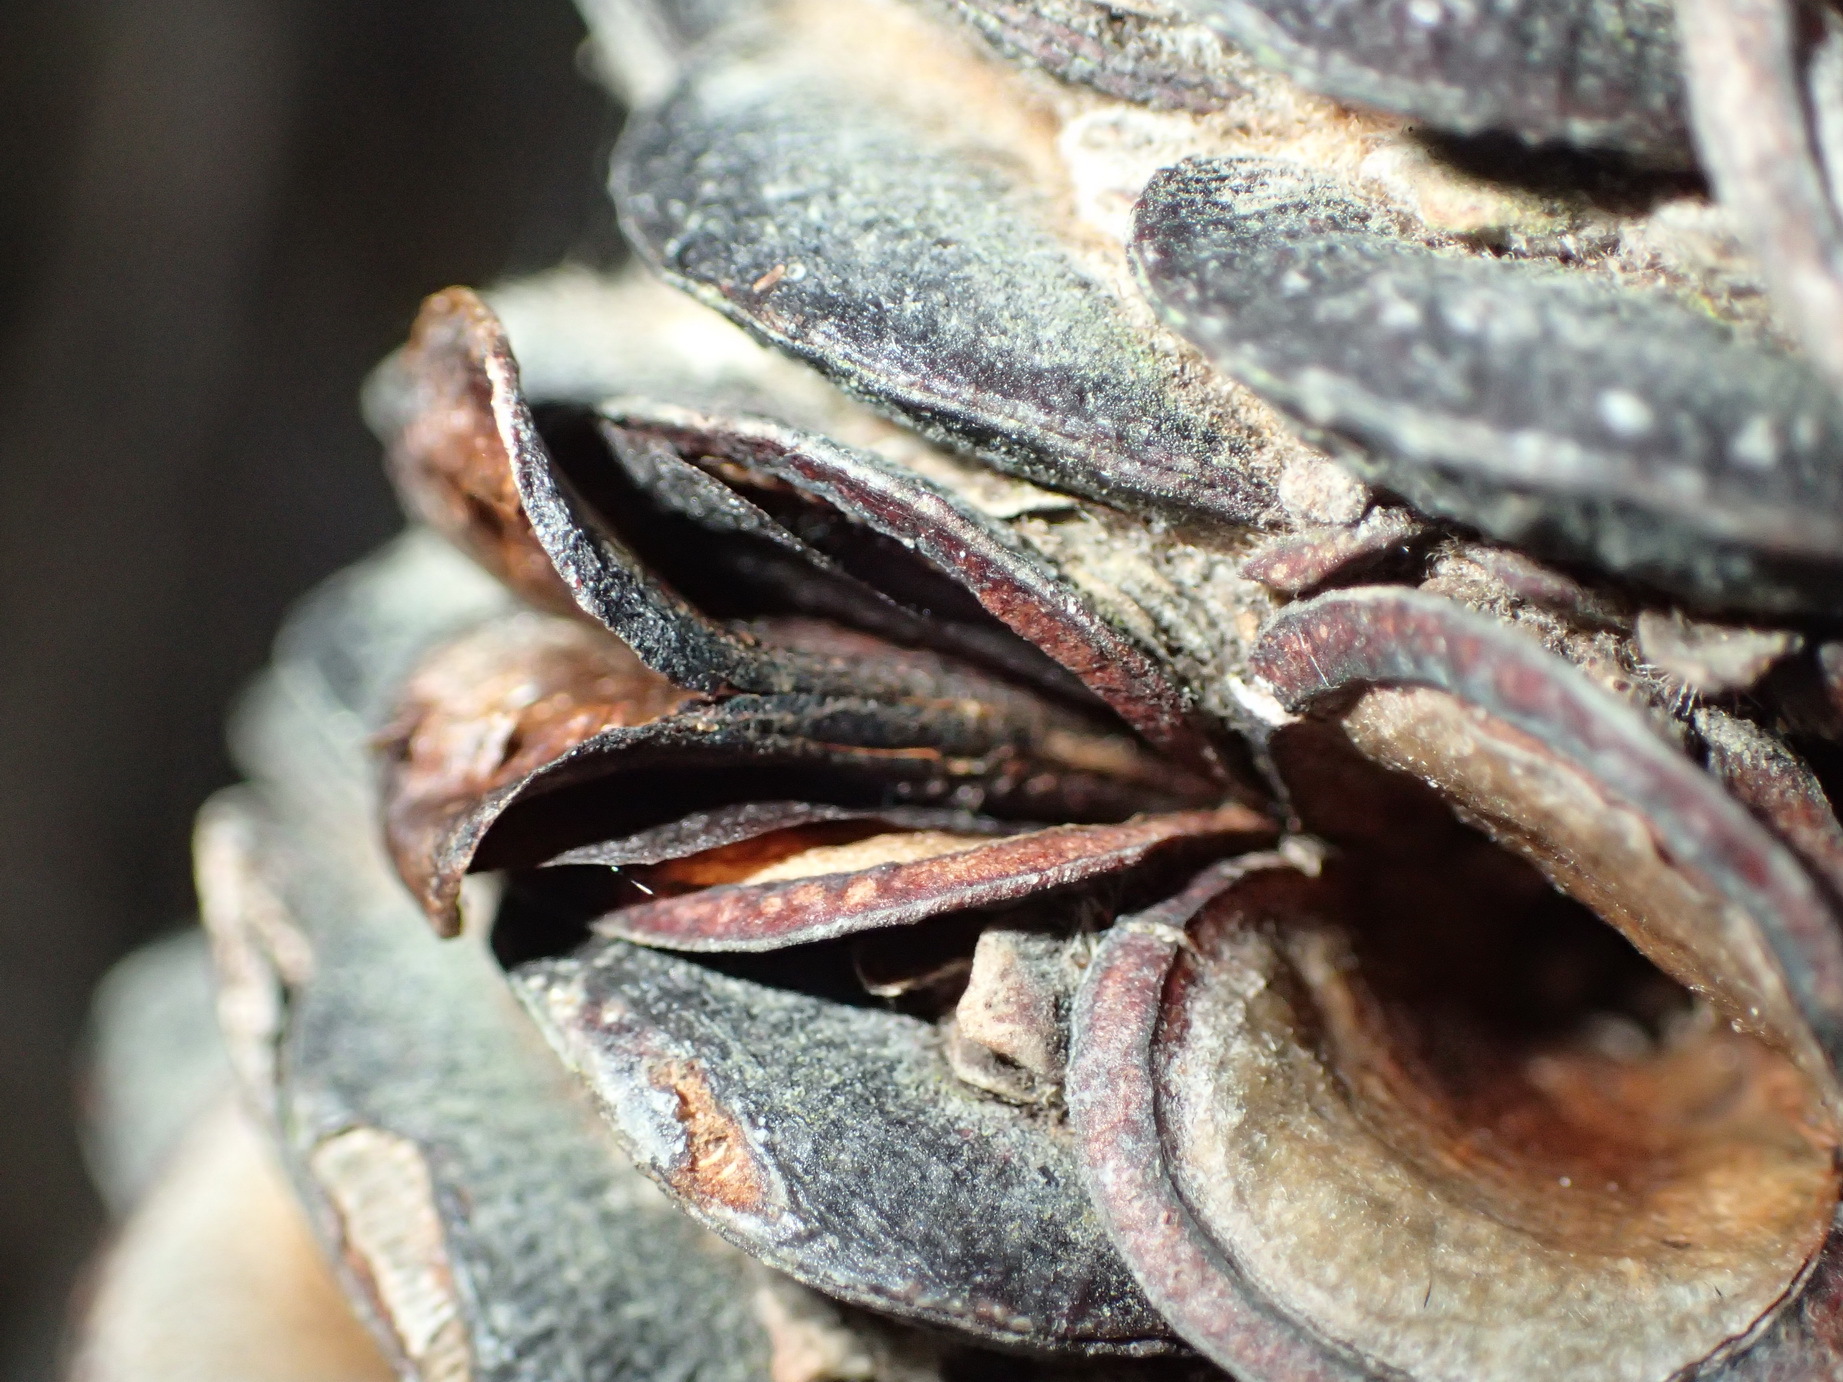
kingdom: Plantae
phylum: Tracheophyta
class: Magnoliopsida
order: Proteales
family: Proteaceae
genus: Banksia
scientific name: Banksia baueri
